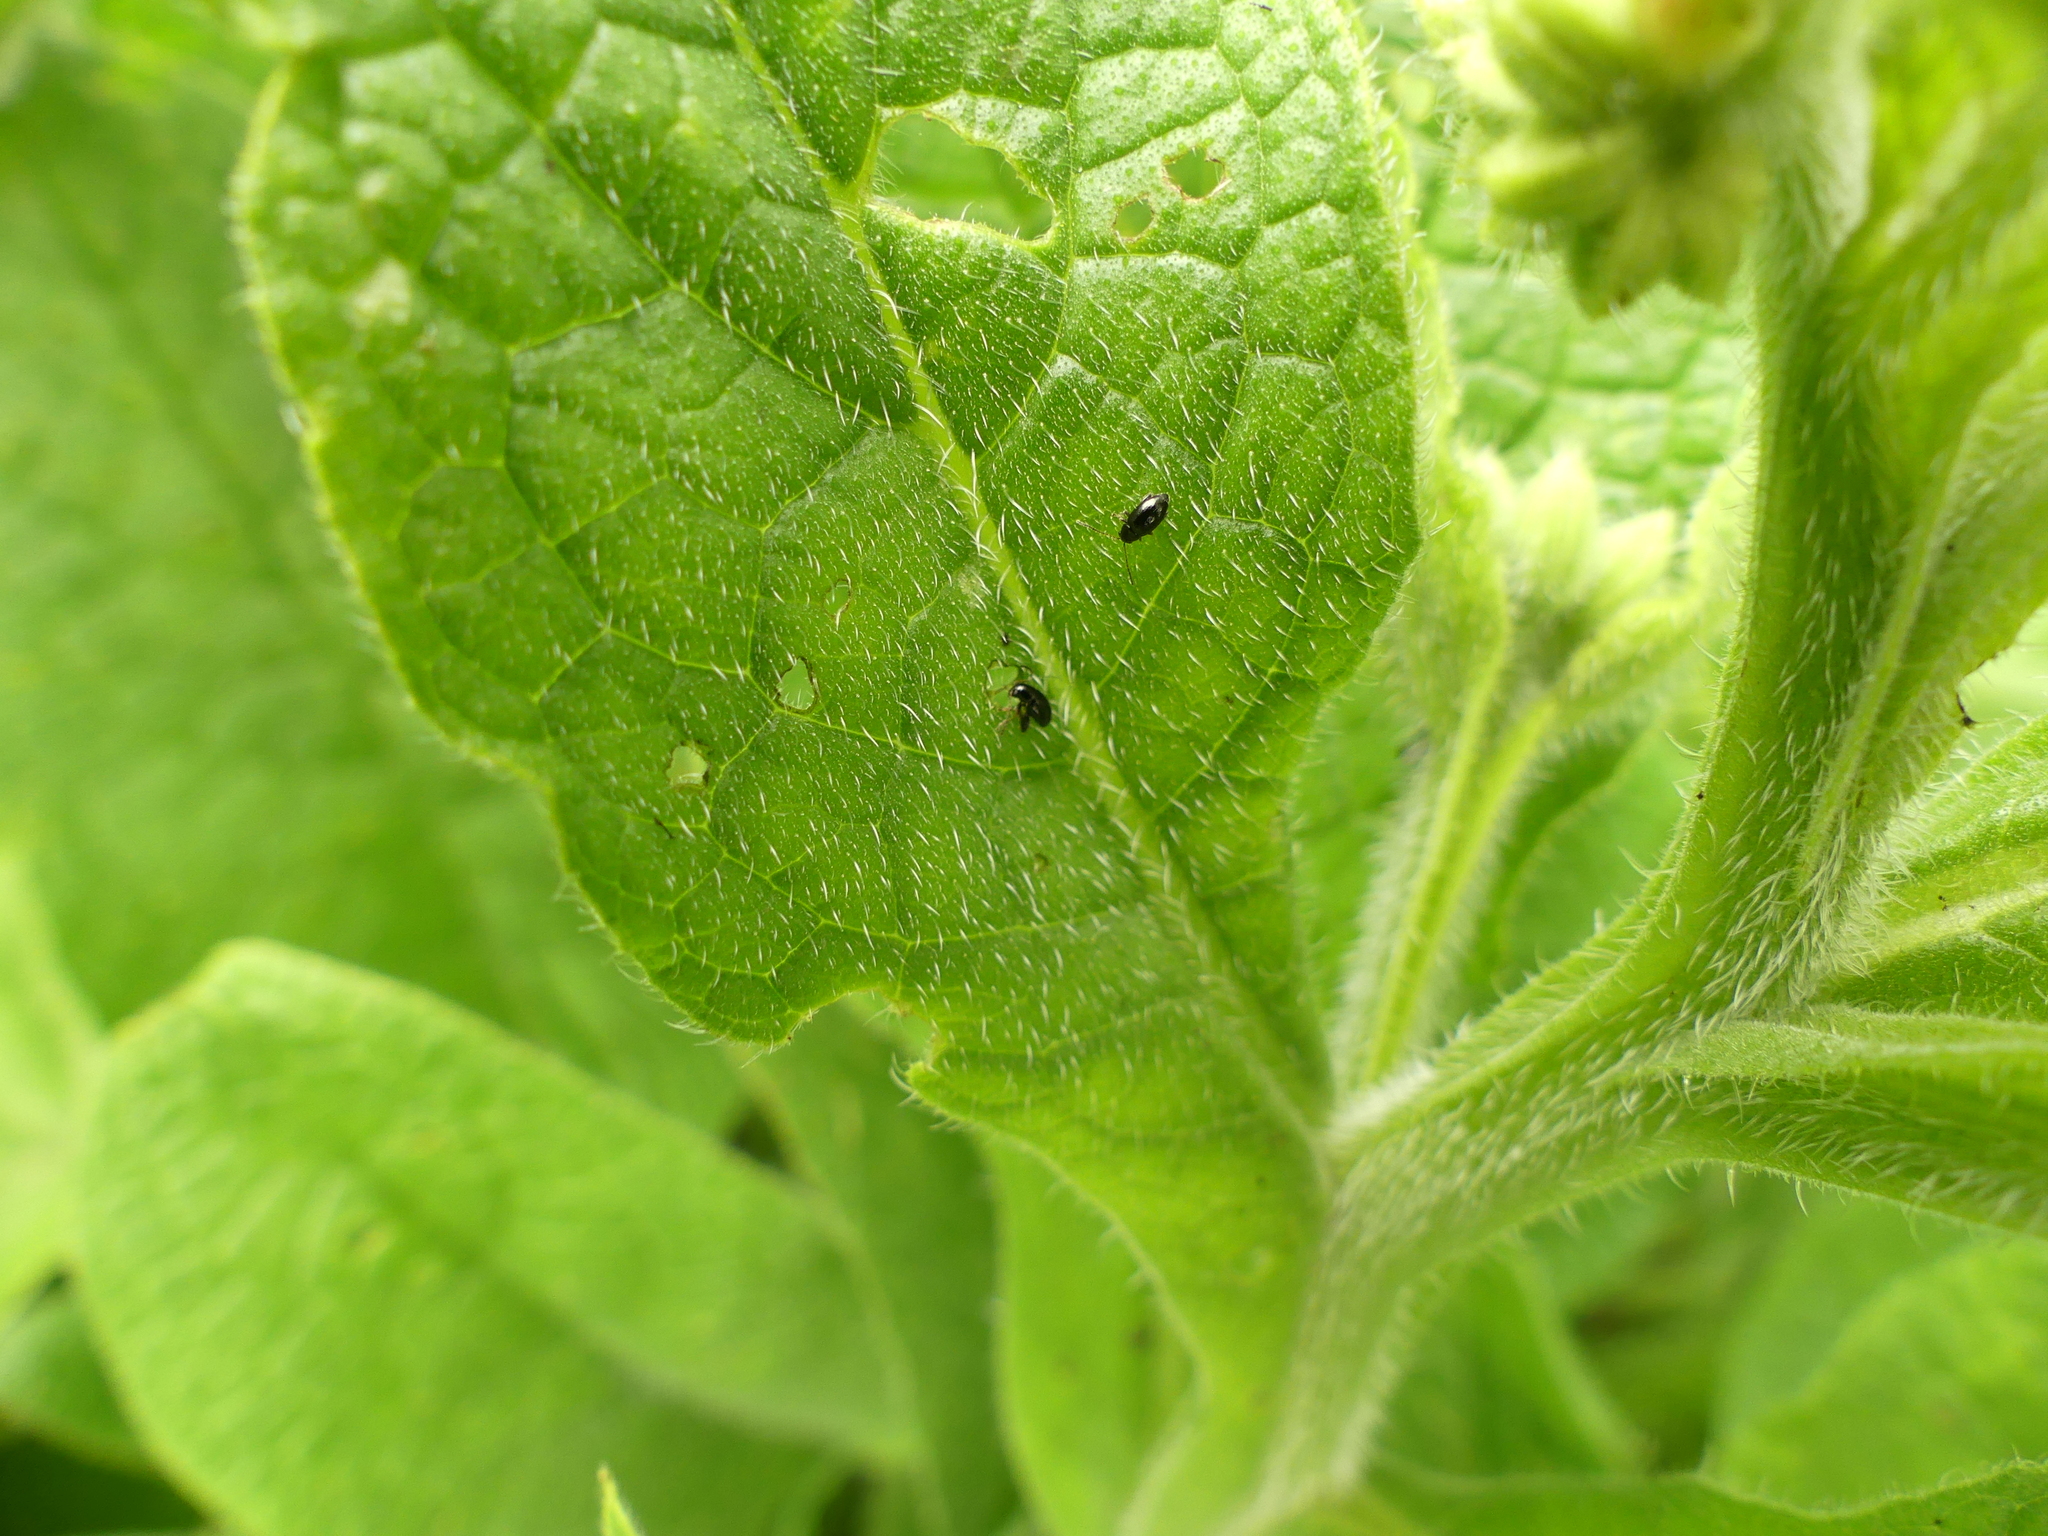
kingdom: Animalia
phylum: Arthropoda
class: Insecta
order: Coleoptera
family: Chrysomelidae
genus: Longitarsus
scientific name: Longitarsus anchusae
